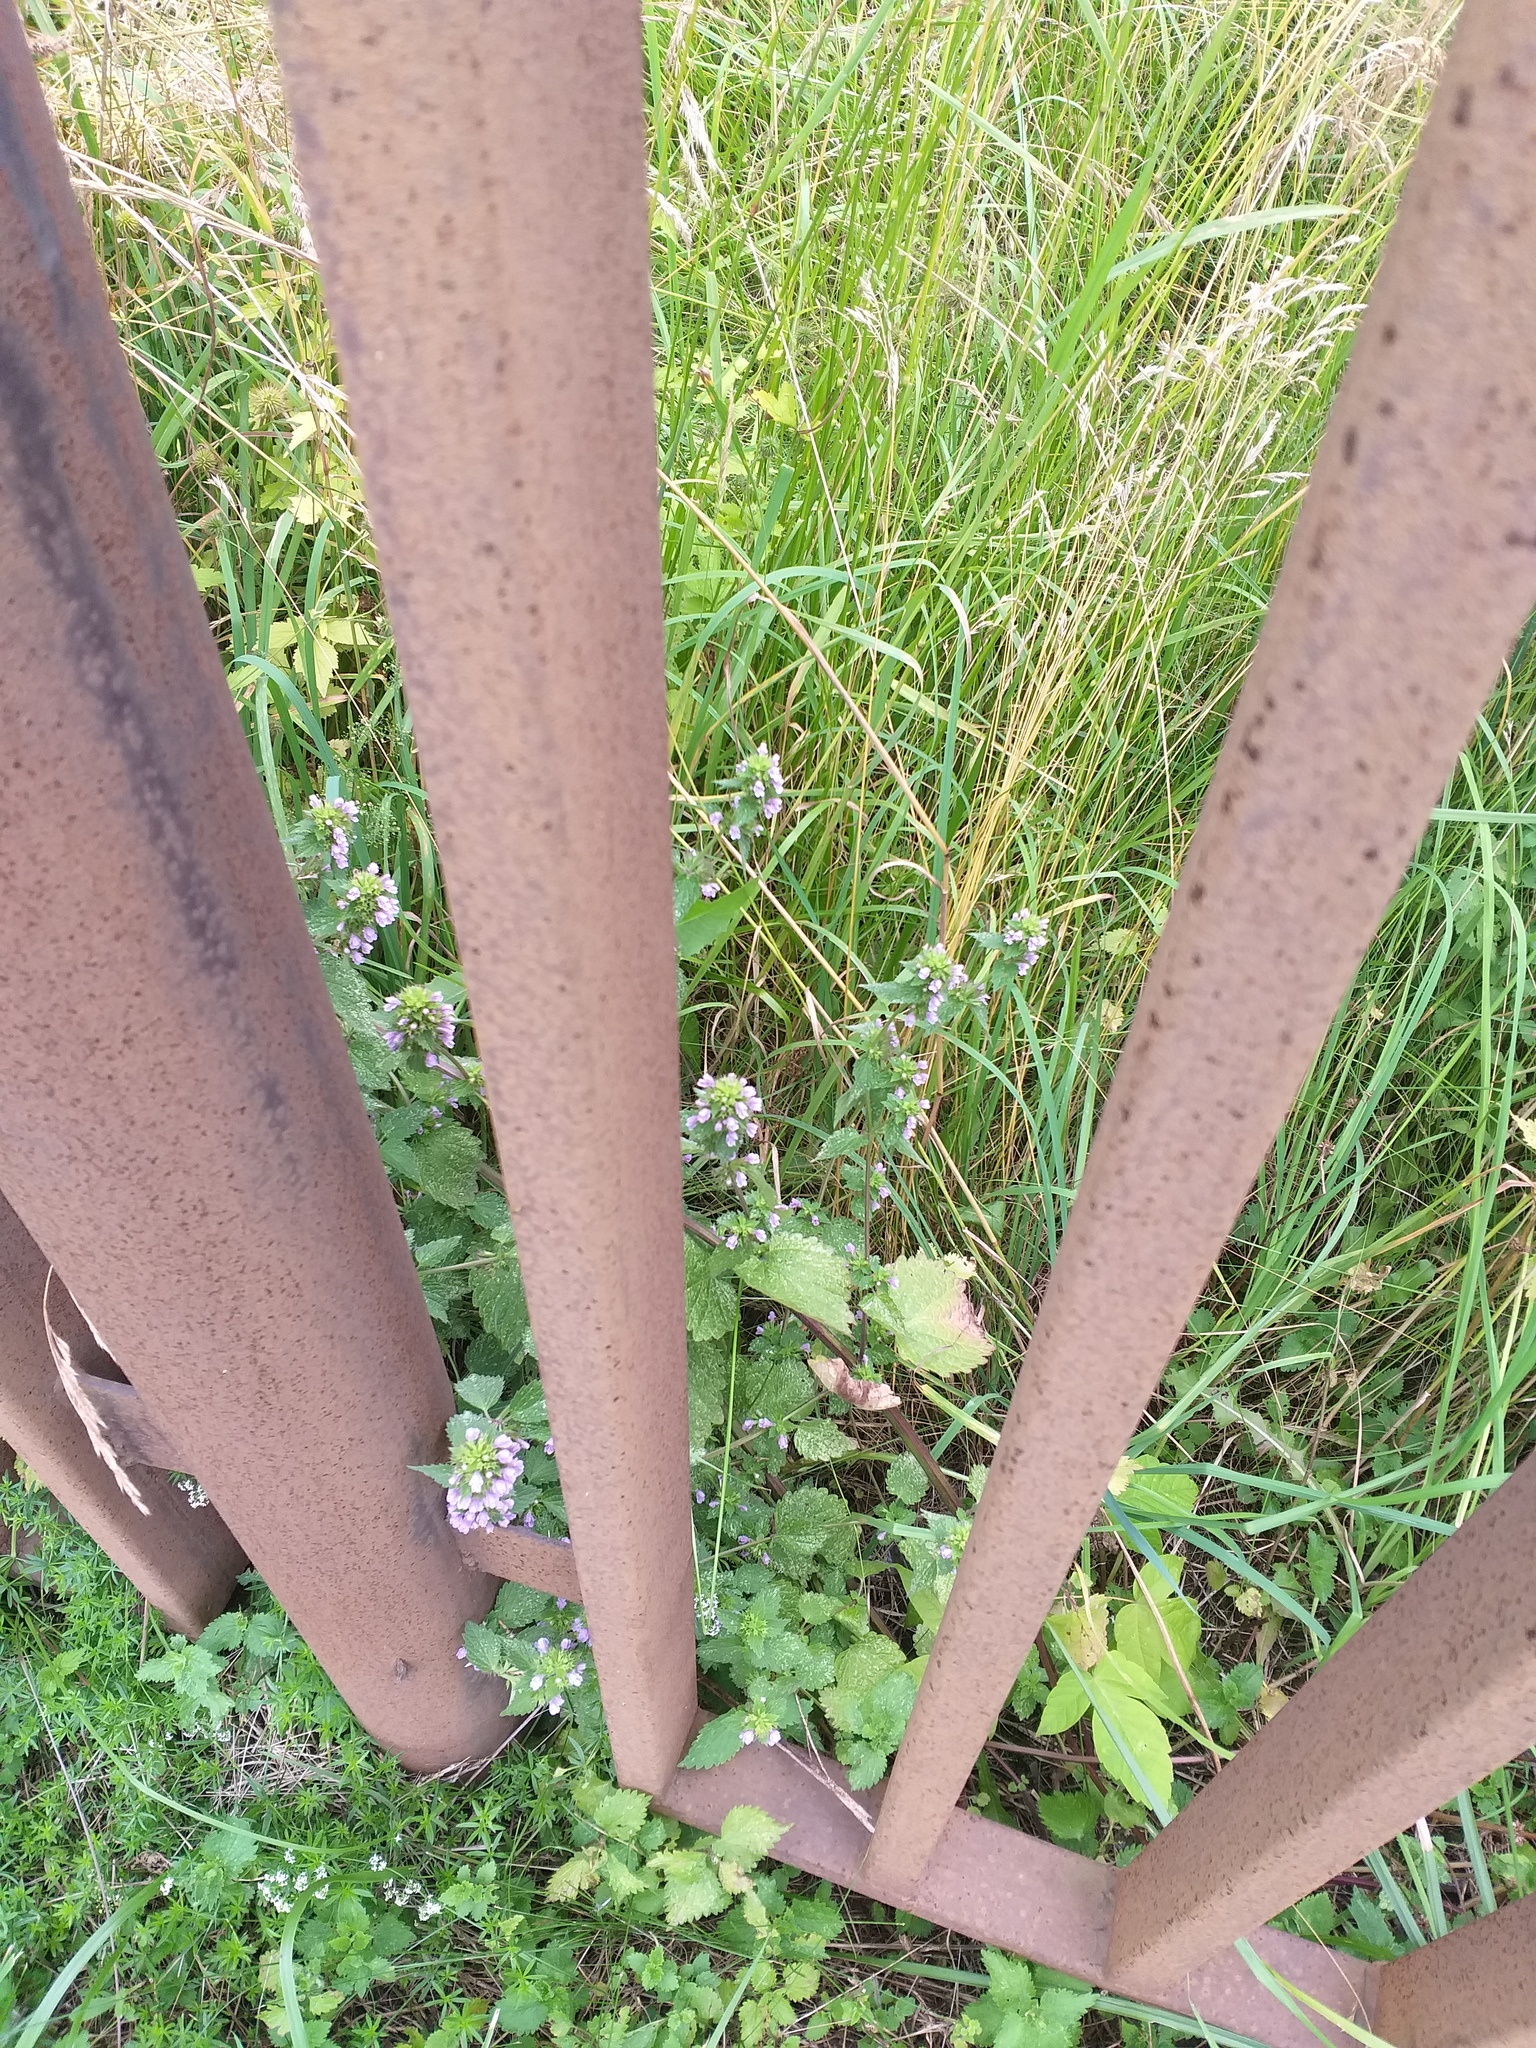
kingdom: Plantae
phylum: Tracheophyta
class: Magnoliopsida
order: Lamiales
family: Lamiaceae
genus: Ballota
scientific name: Ballota nigra
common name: Black horehound
